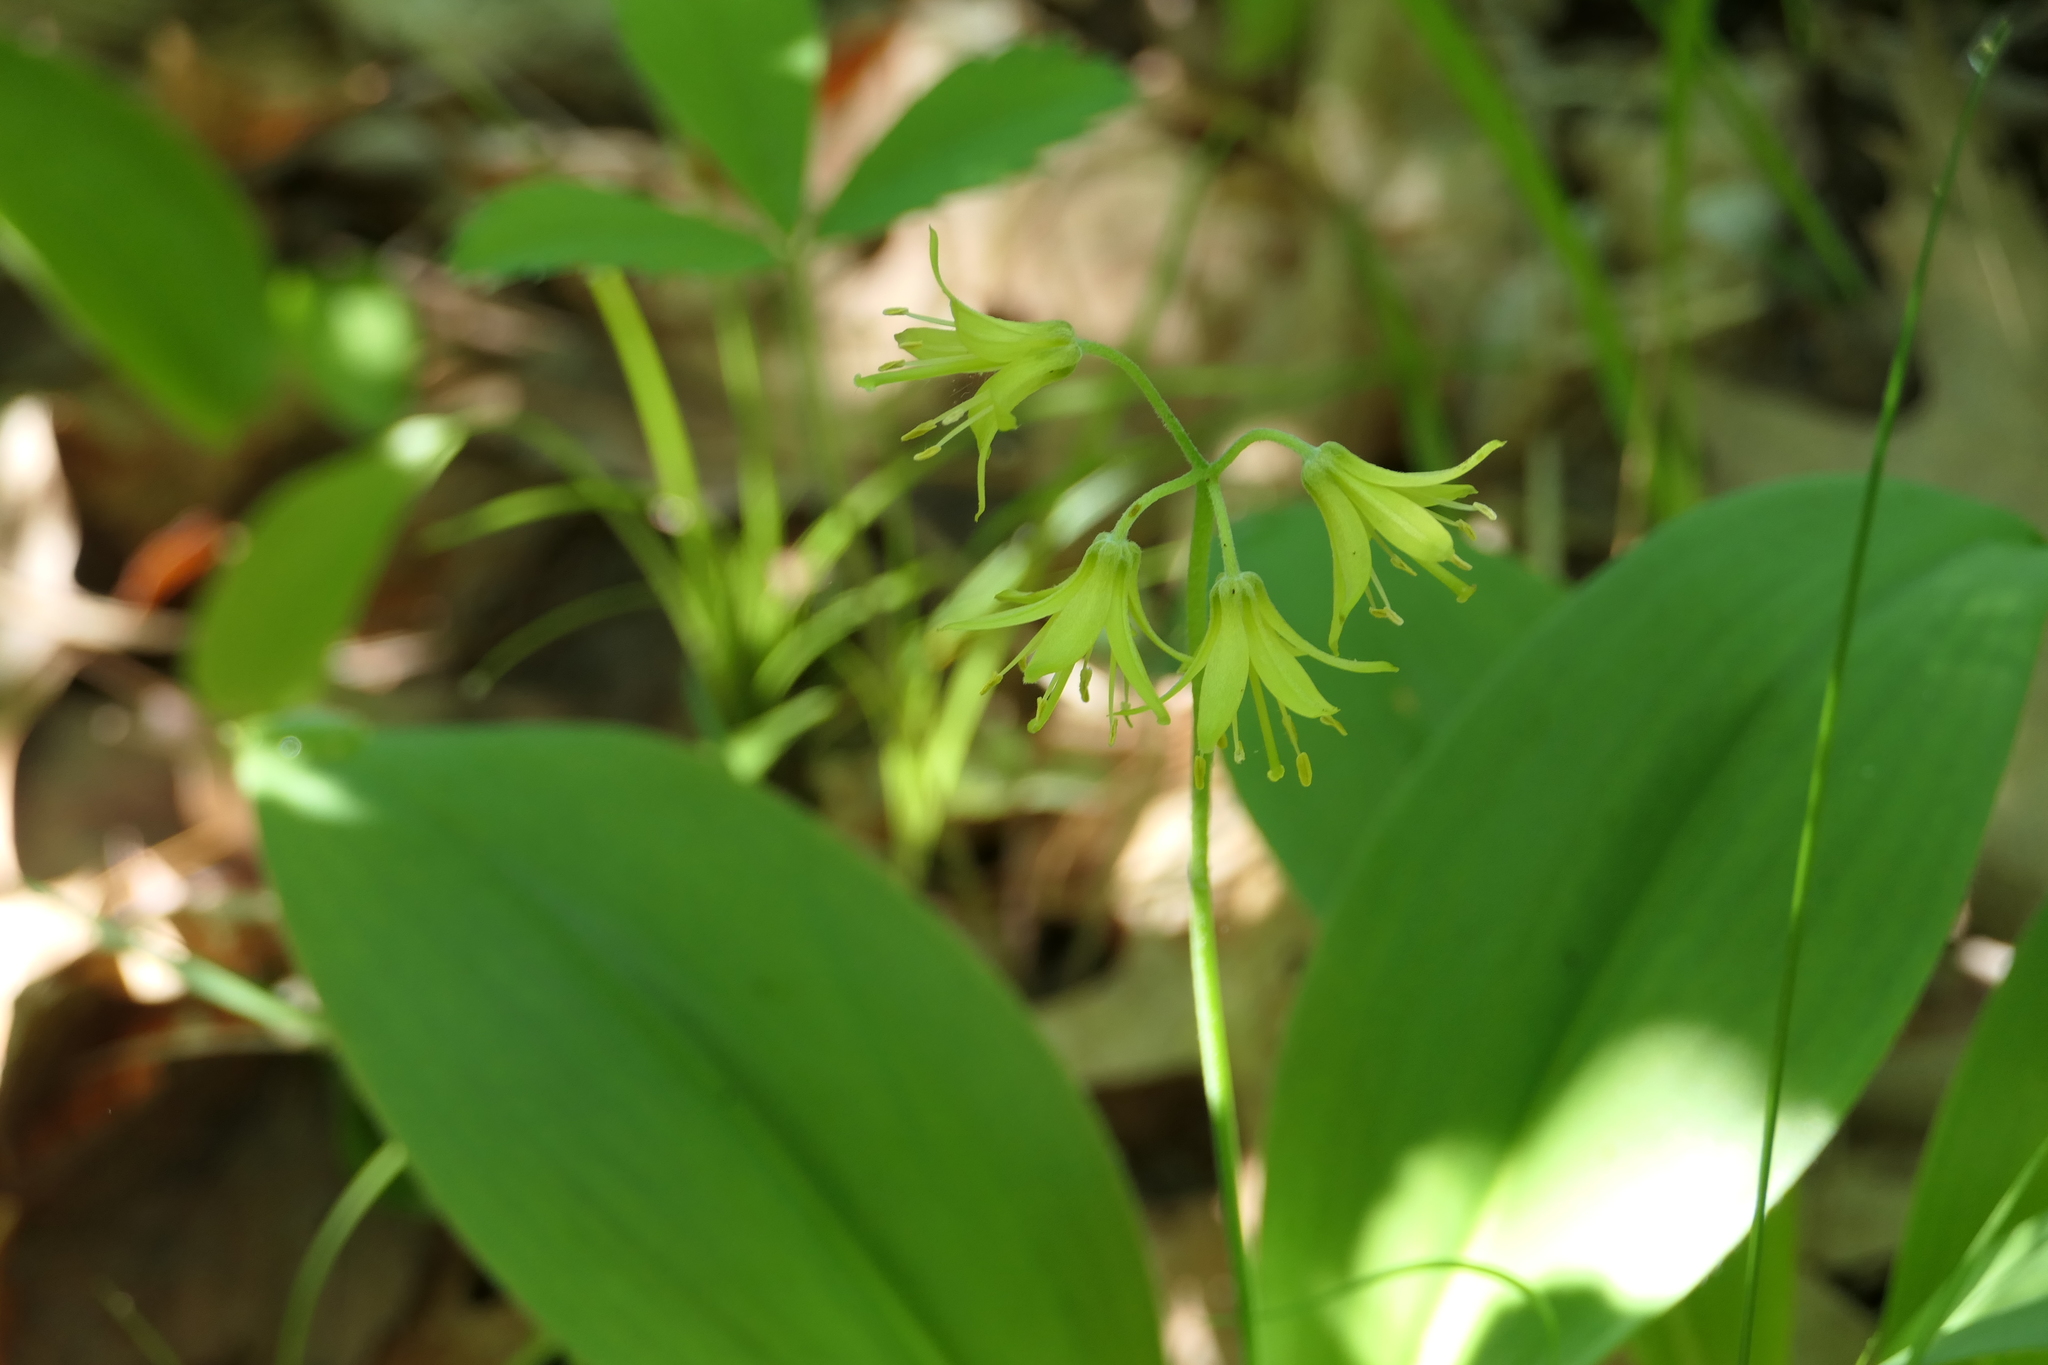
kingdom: Plantae
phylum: Tracheophyta
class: Liliopsida
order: Liliales
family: Liliaceae
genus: Clintonia
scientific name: Clintonia borealis
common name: Yellow clintonia
